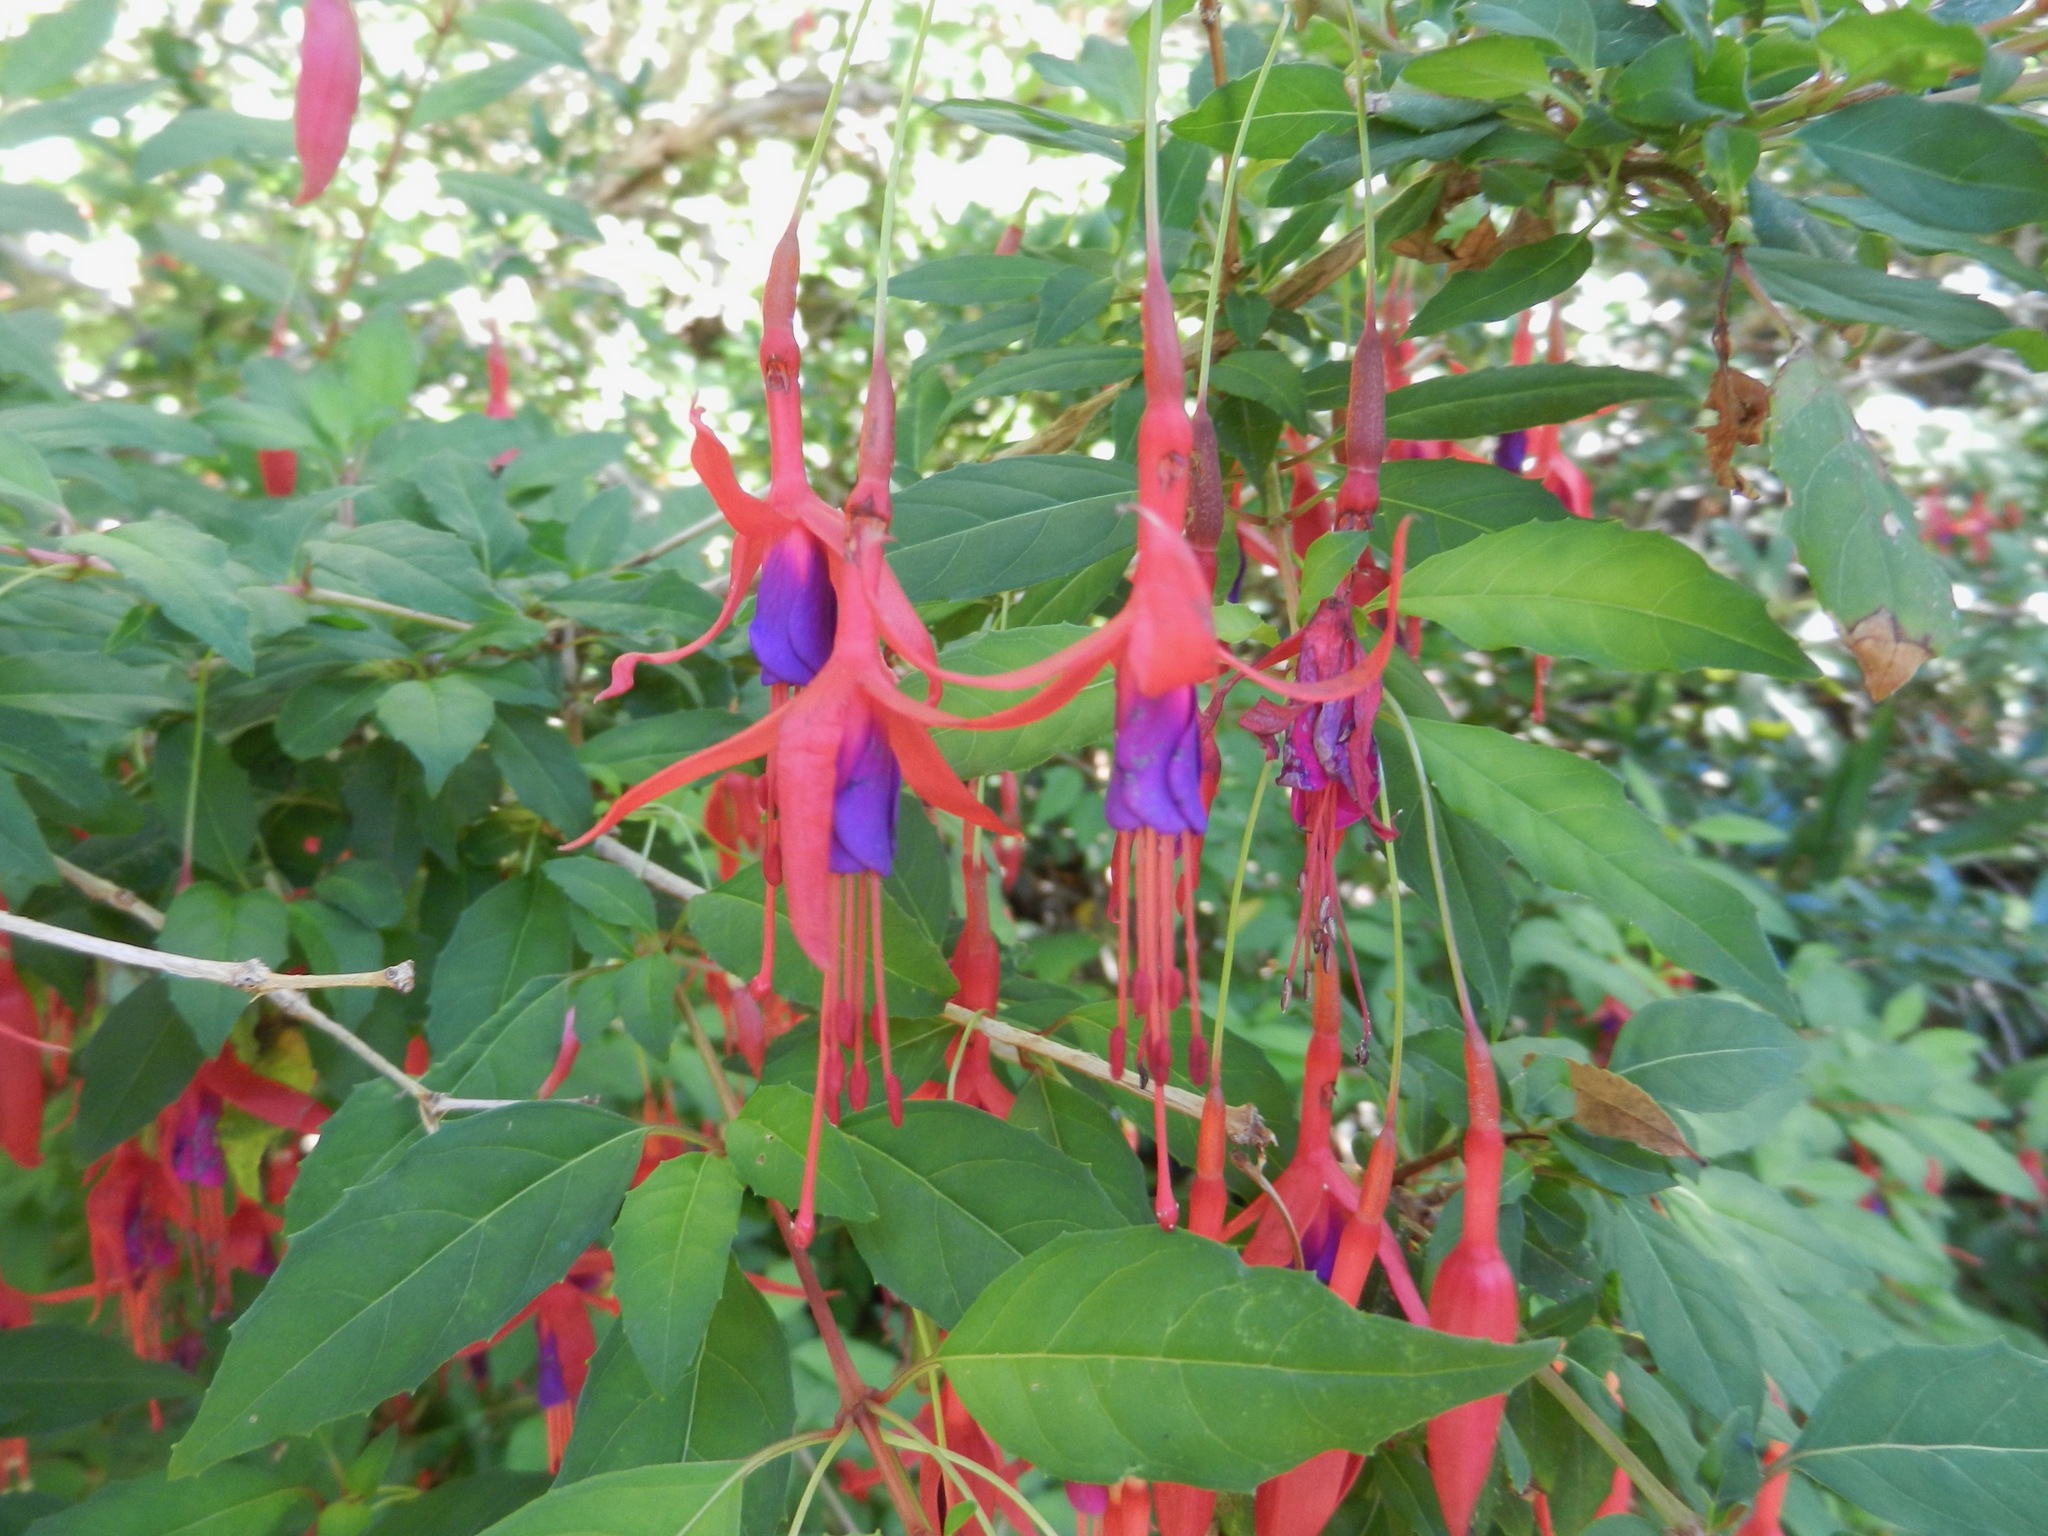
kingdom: Plantae
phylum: Tracheophyta
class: Magnoliopsida
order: Myrtales
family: Onagraceae
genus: Fuchsia
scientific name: Fuchsia magellanica
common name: Hardy fuchsia
